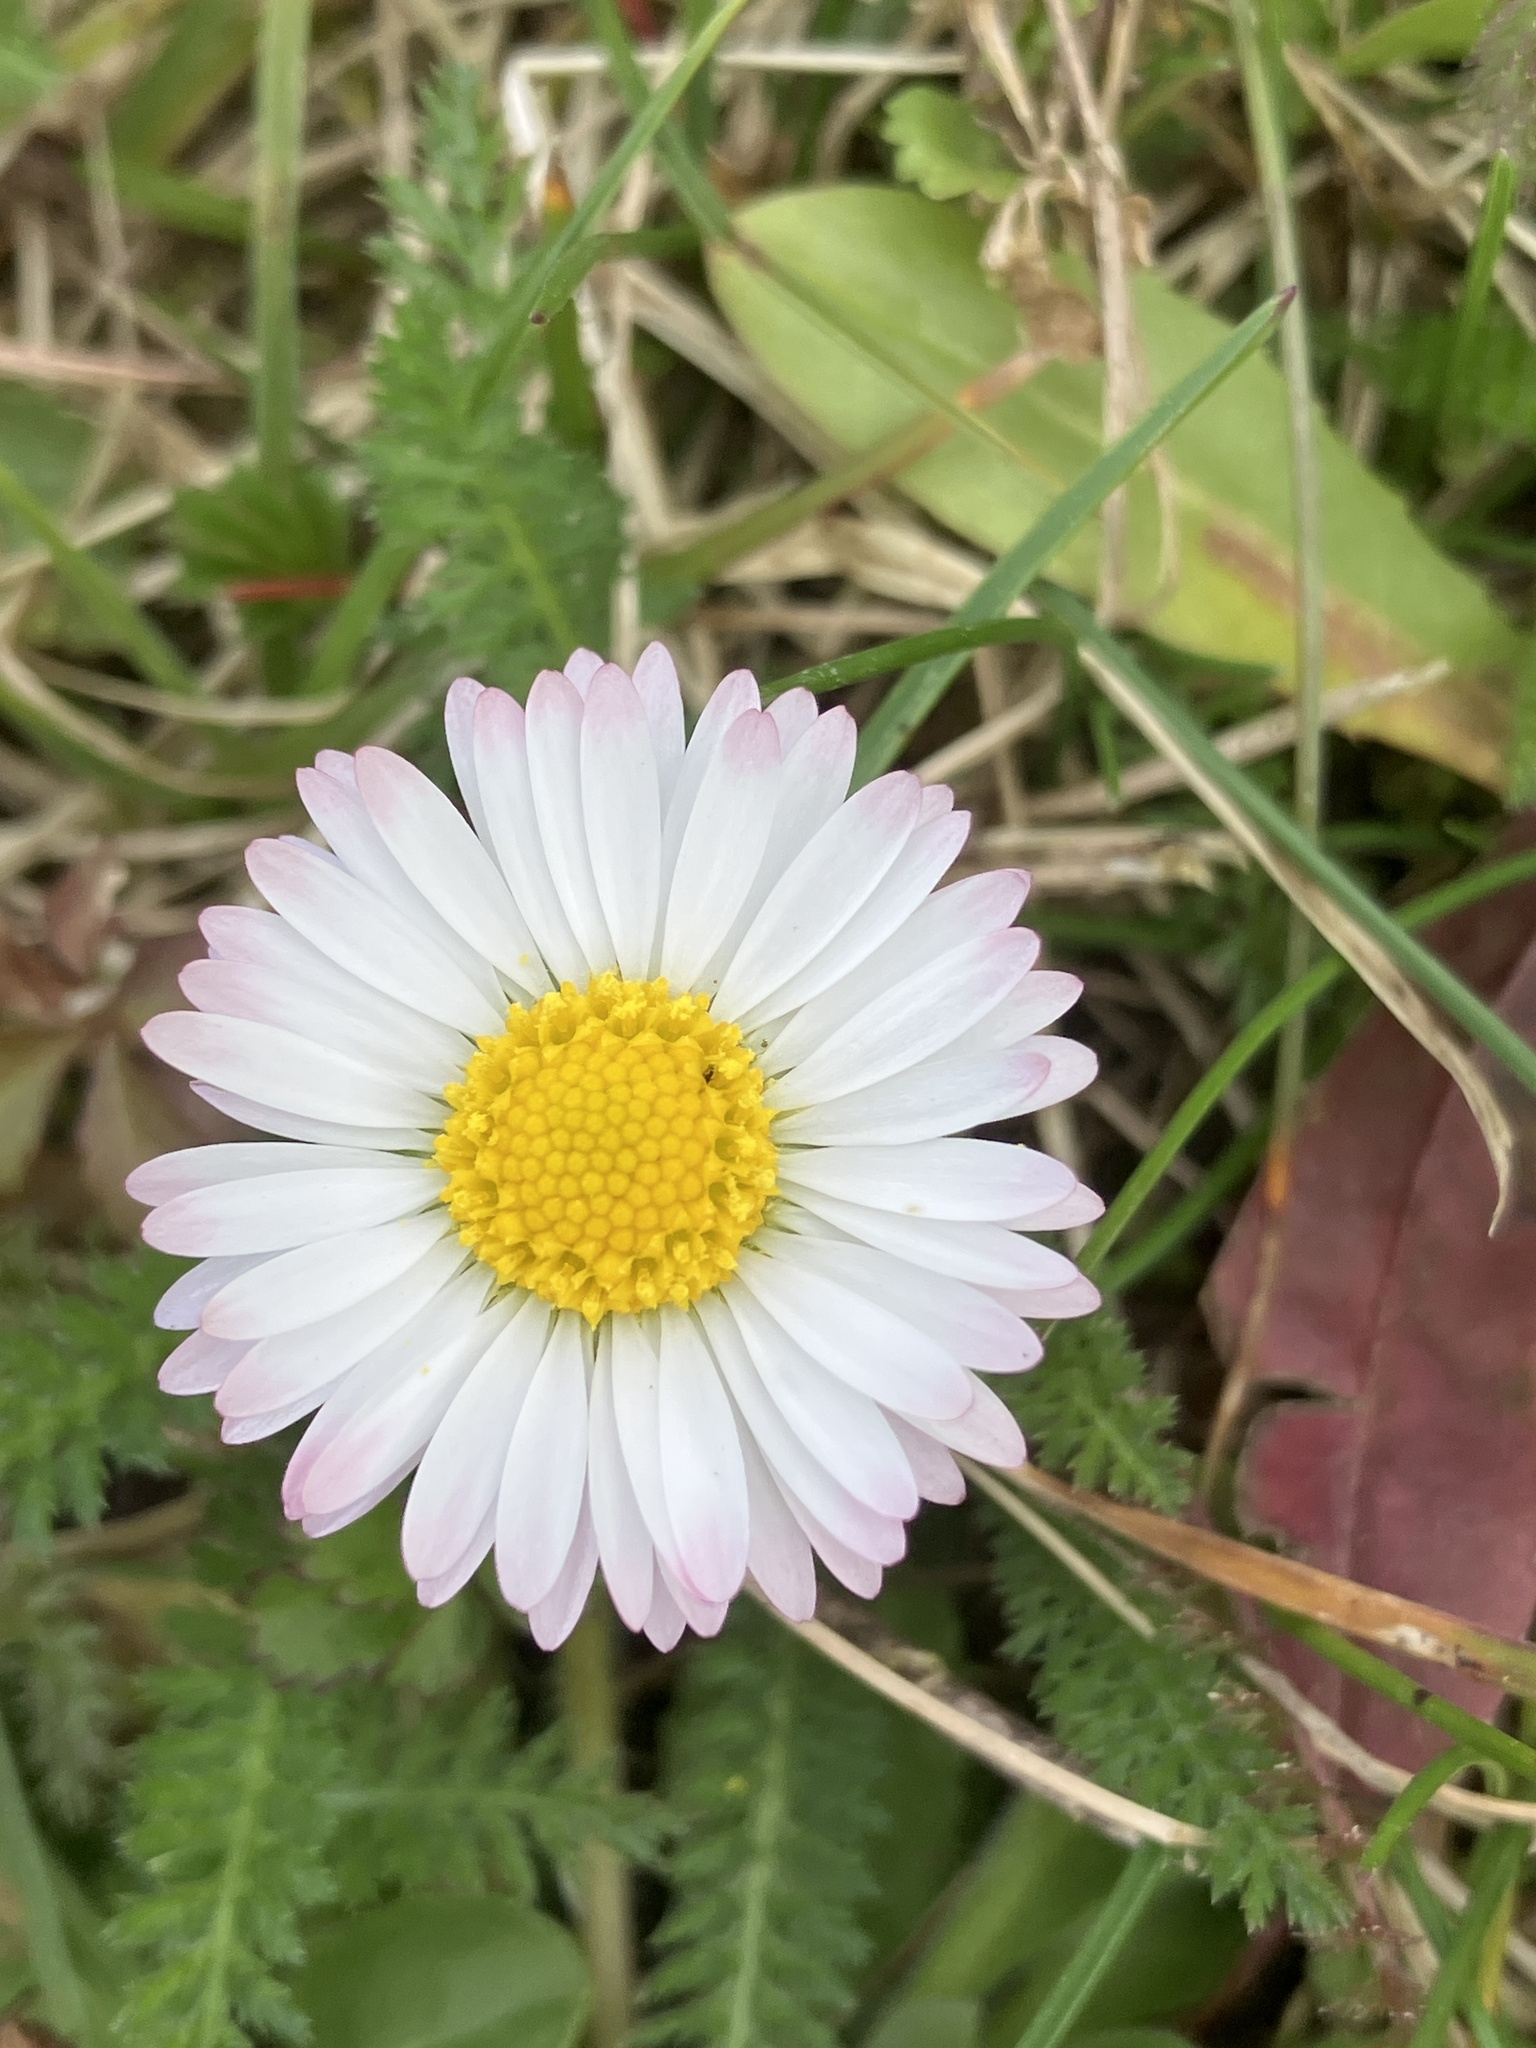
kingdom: Plantae
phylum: Tracheophyta
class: Magnoliopsida
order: Asterales
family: Asteraceae
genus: Bellis
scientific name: Bellis perennis
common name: Lawndaisy
